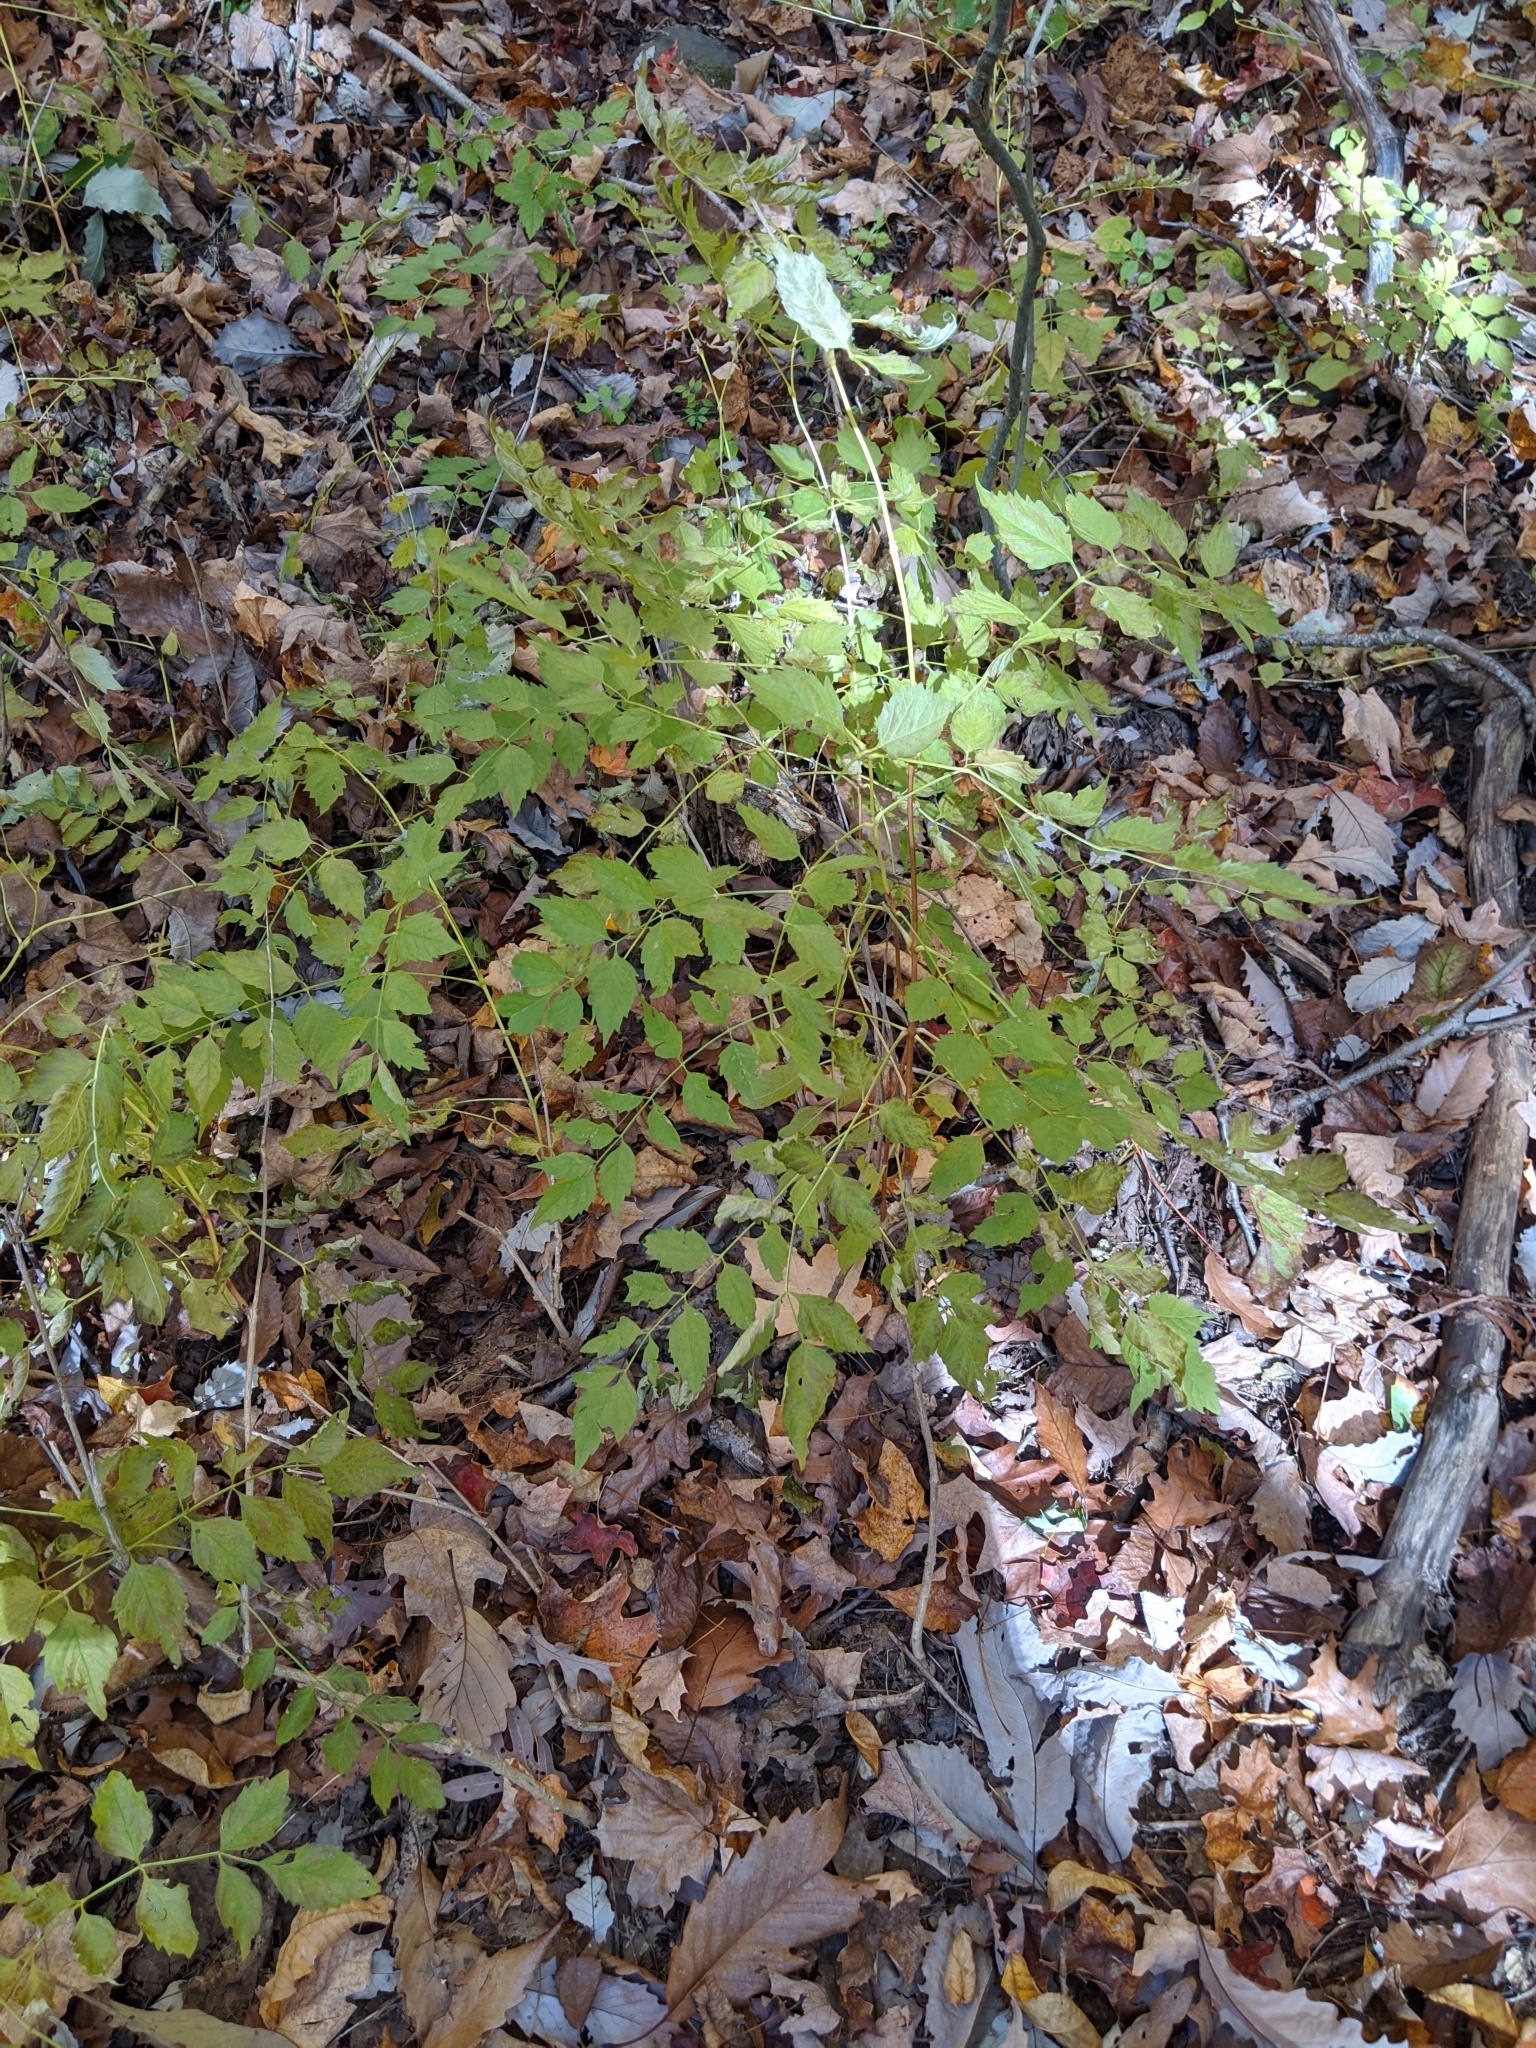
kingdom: Plantae
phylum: Tracheophyta
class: Magnoliopsida
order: Lamiales
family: Bignoniaceae
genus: Campsis
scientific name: Campsis radicans
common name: Trumpet-creeper
